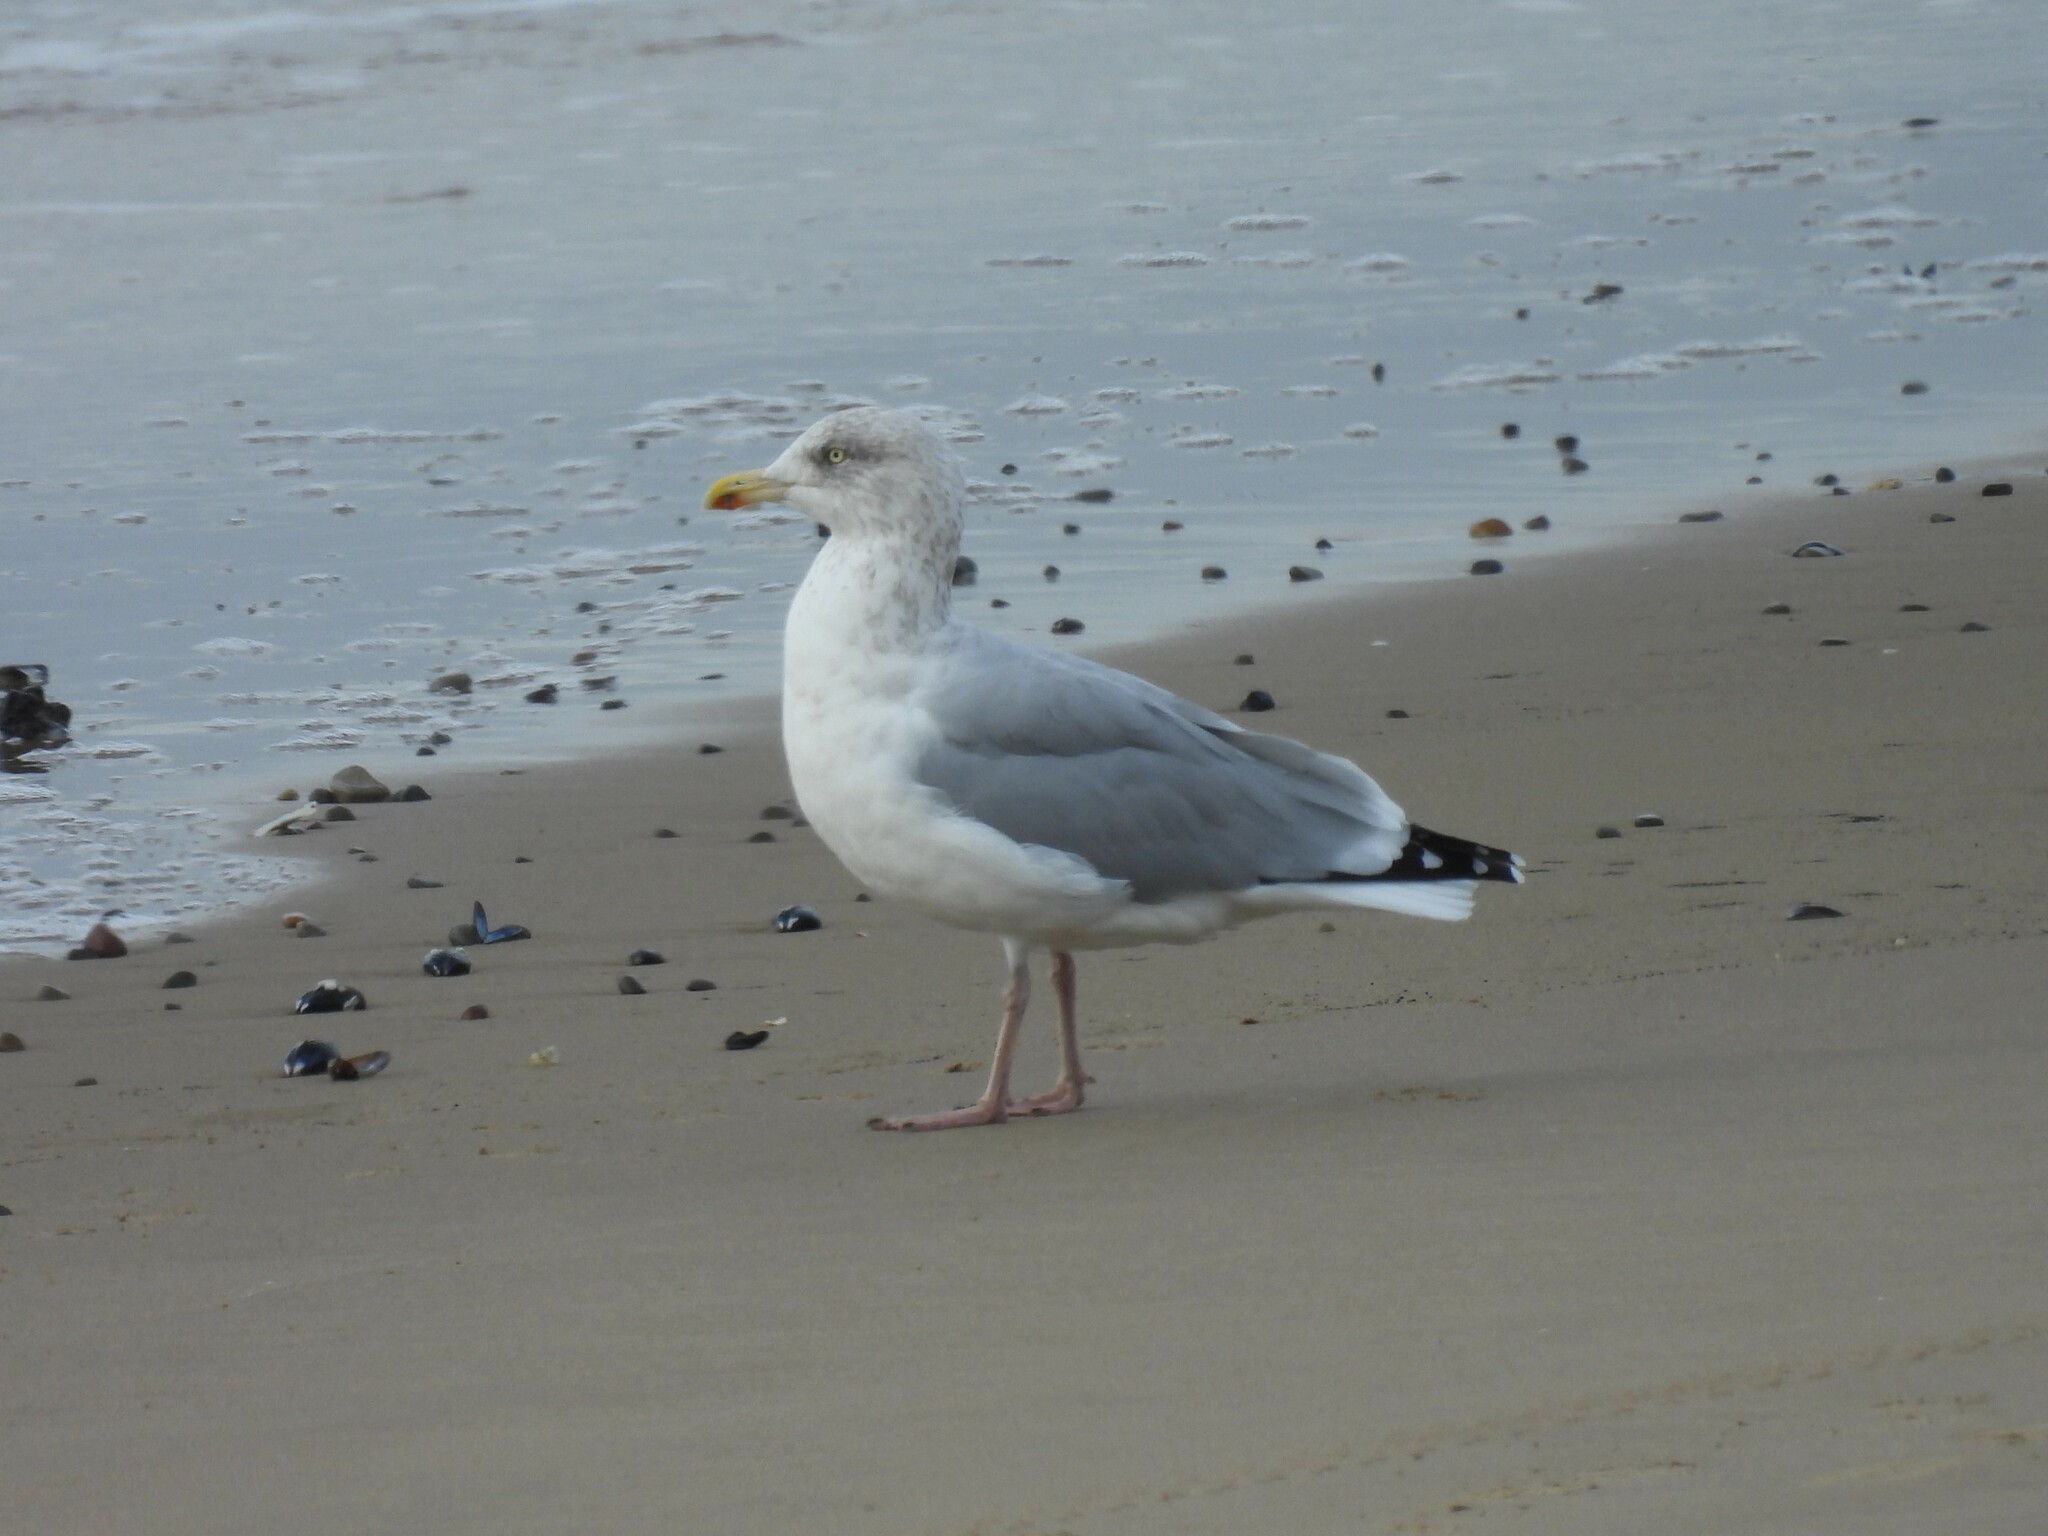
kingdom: Animalia
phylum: Chordata
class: Aves
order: Charadriiformes
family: Laridae
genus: Larus
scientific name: Larus argentatus
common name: Herring gull
